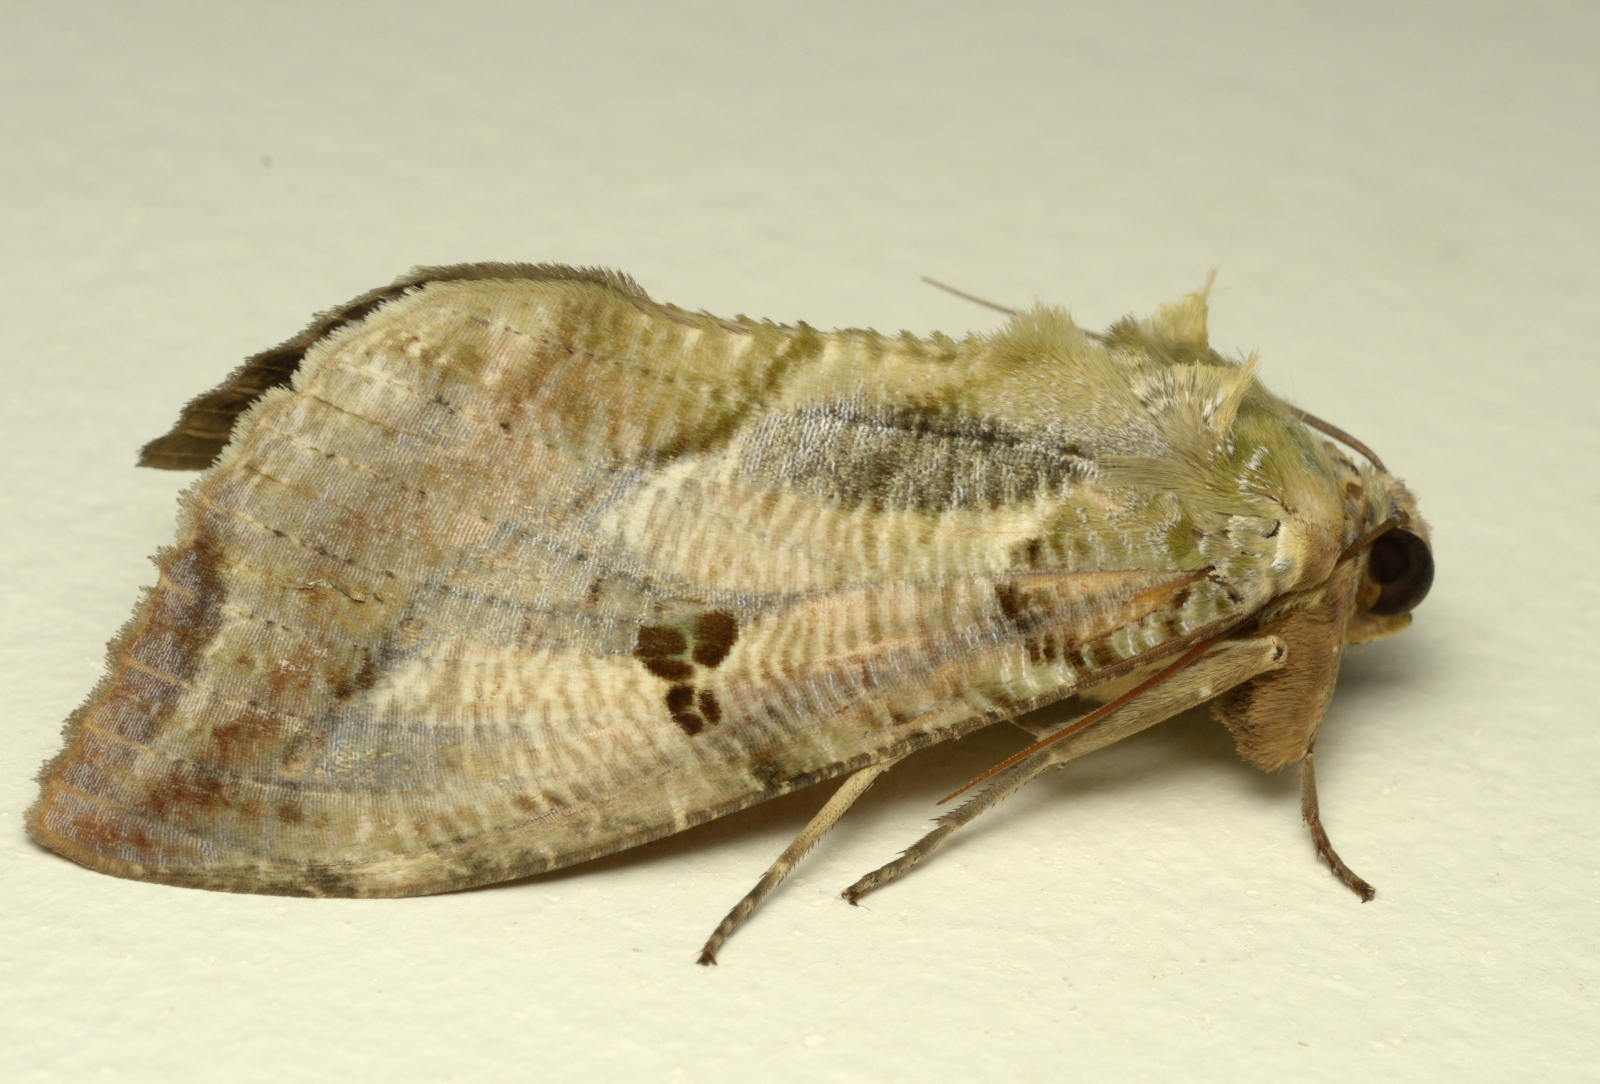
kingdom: Animalia
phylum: Arthropoda
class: Insecta
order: Lepidoptera
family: Erebidae
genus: Eudocima
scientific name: Eudocima materna
